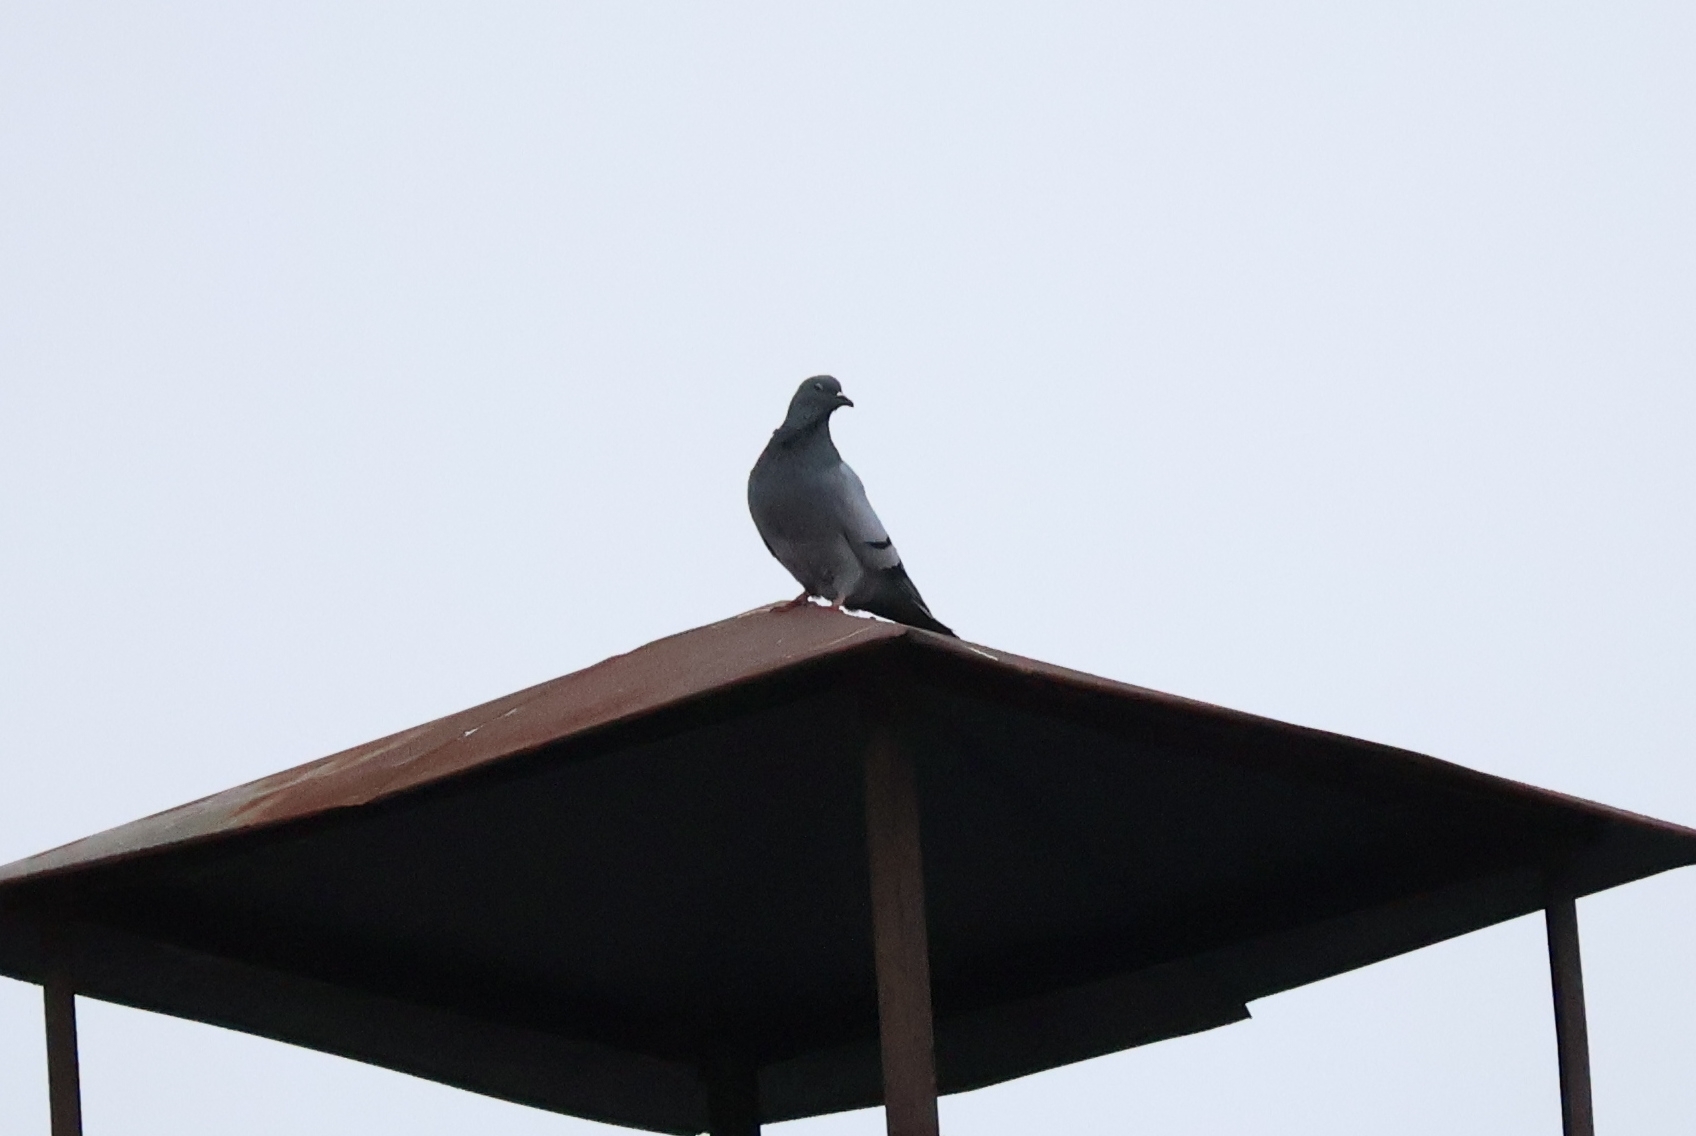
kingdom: Animalia
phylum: Chordata
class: Aves
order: Columbiformes
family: Columbidae
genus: Columba
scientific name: Columba livia
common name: Rock pigeon
